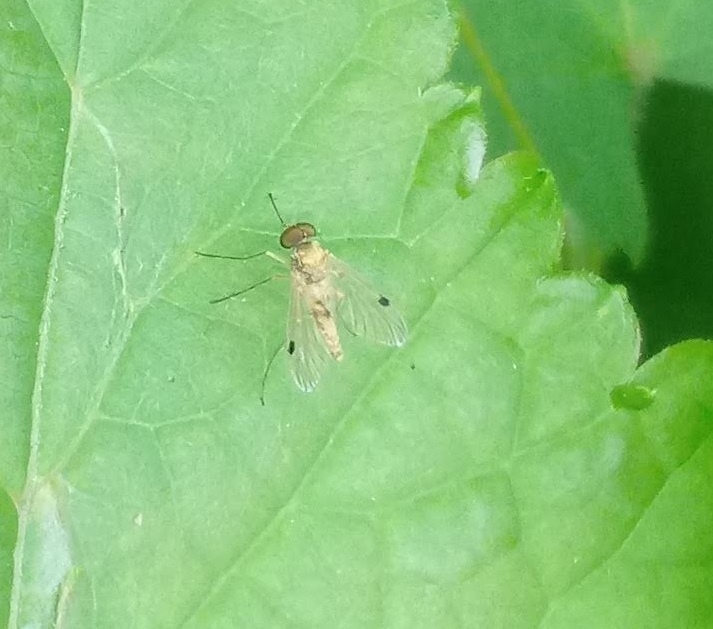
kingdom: Animalia
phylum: Arthropoda
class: Insecta
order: Diptera
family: Rhagionidae
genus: Chrysopilus
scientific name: Chrysopilus modestus
